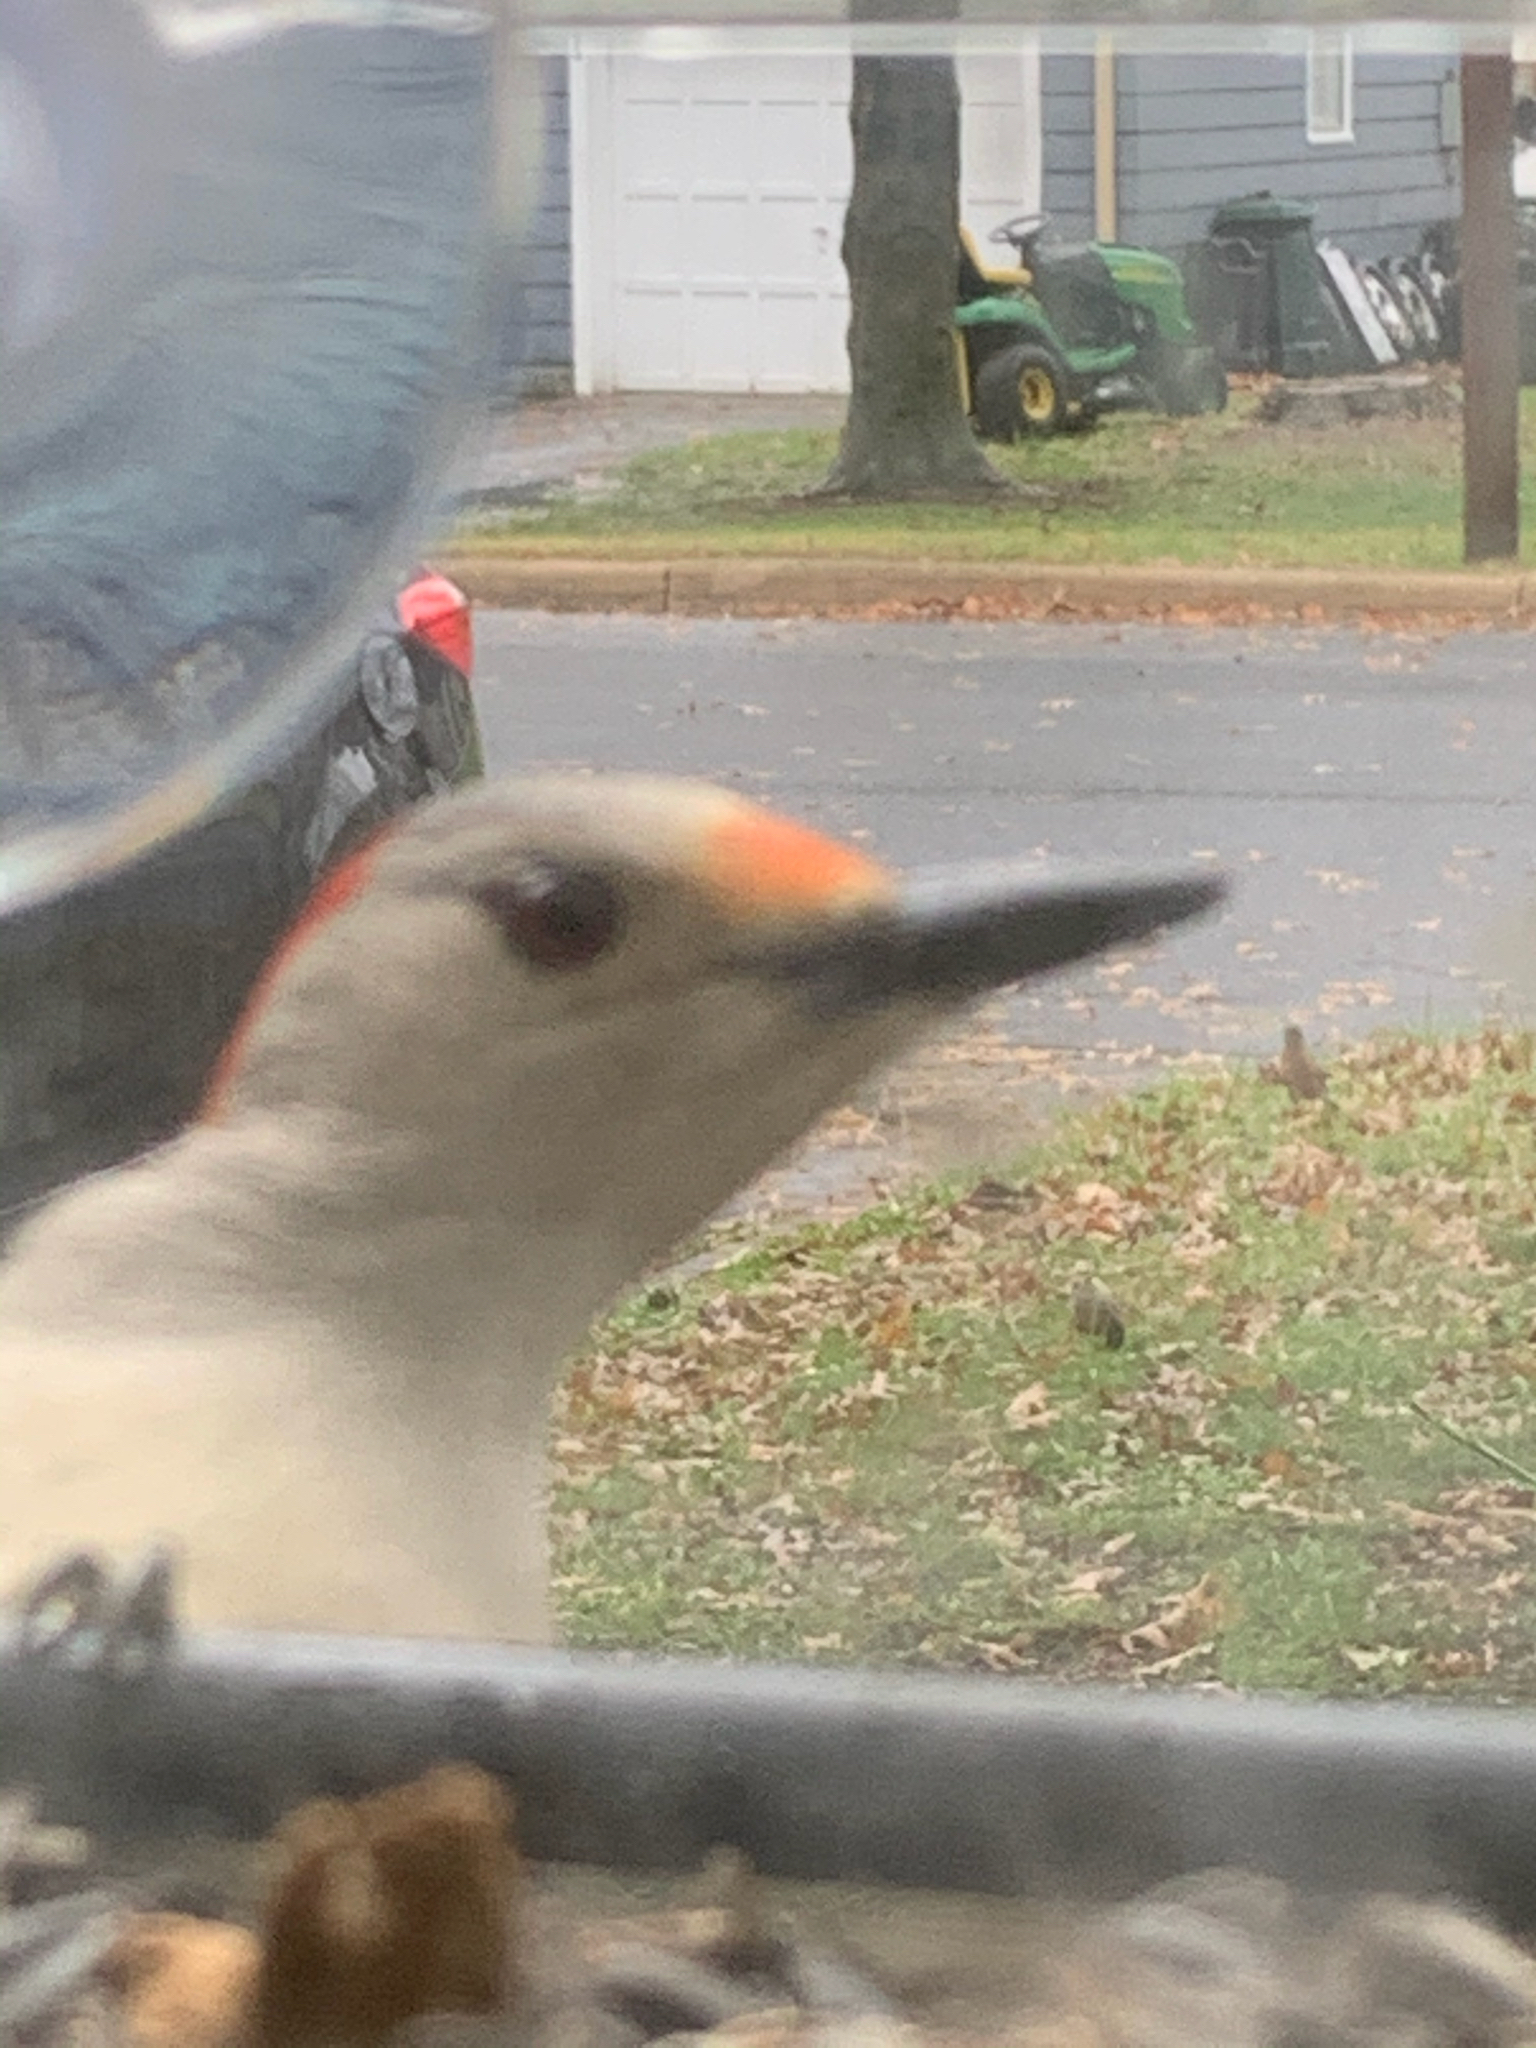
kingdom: Animalia
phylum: Chordata
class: Aves
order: Piciformes
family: Picidae
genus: Melanerpes
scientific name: Melanerpes carolinus
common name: Red-bellied woodpecker
